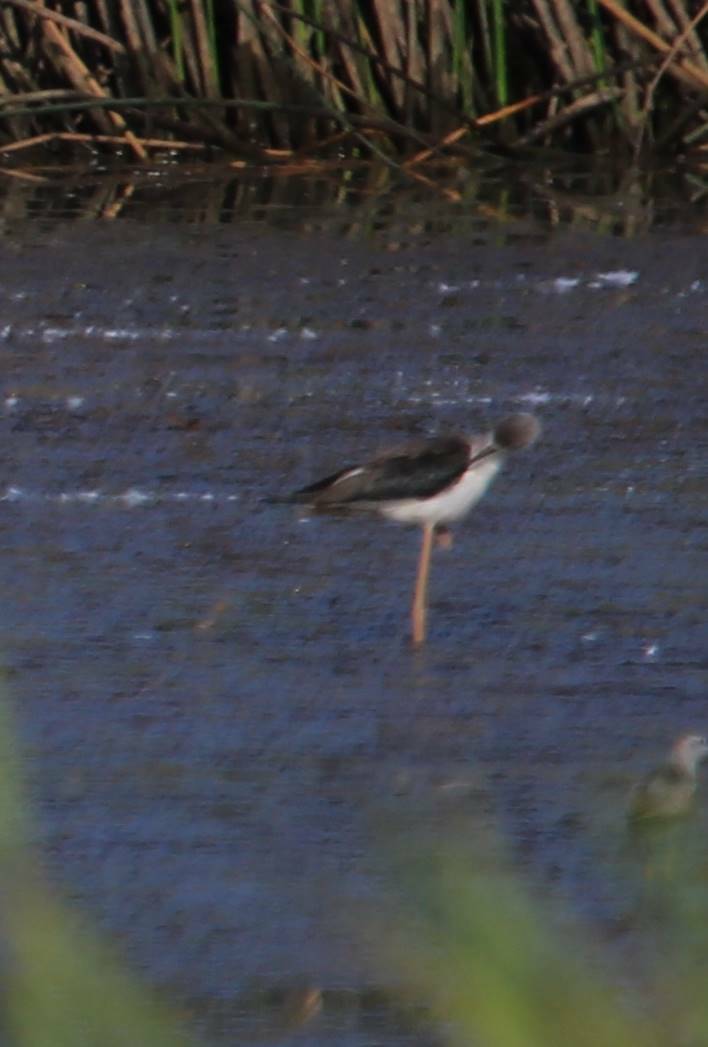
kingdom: Animalia
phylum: Chordata
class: Aves
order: Charadriiformes
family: Recurvirostridae
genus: Himantopus
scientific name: Himantopus himantopus
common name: Black-winged stilt
